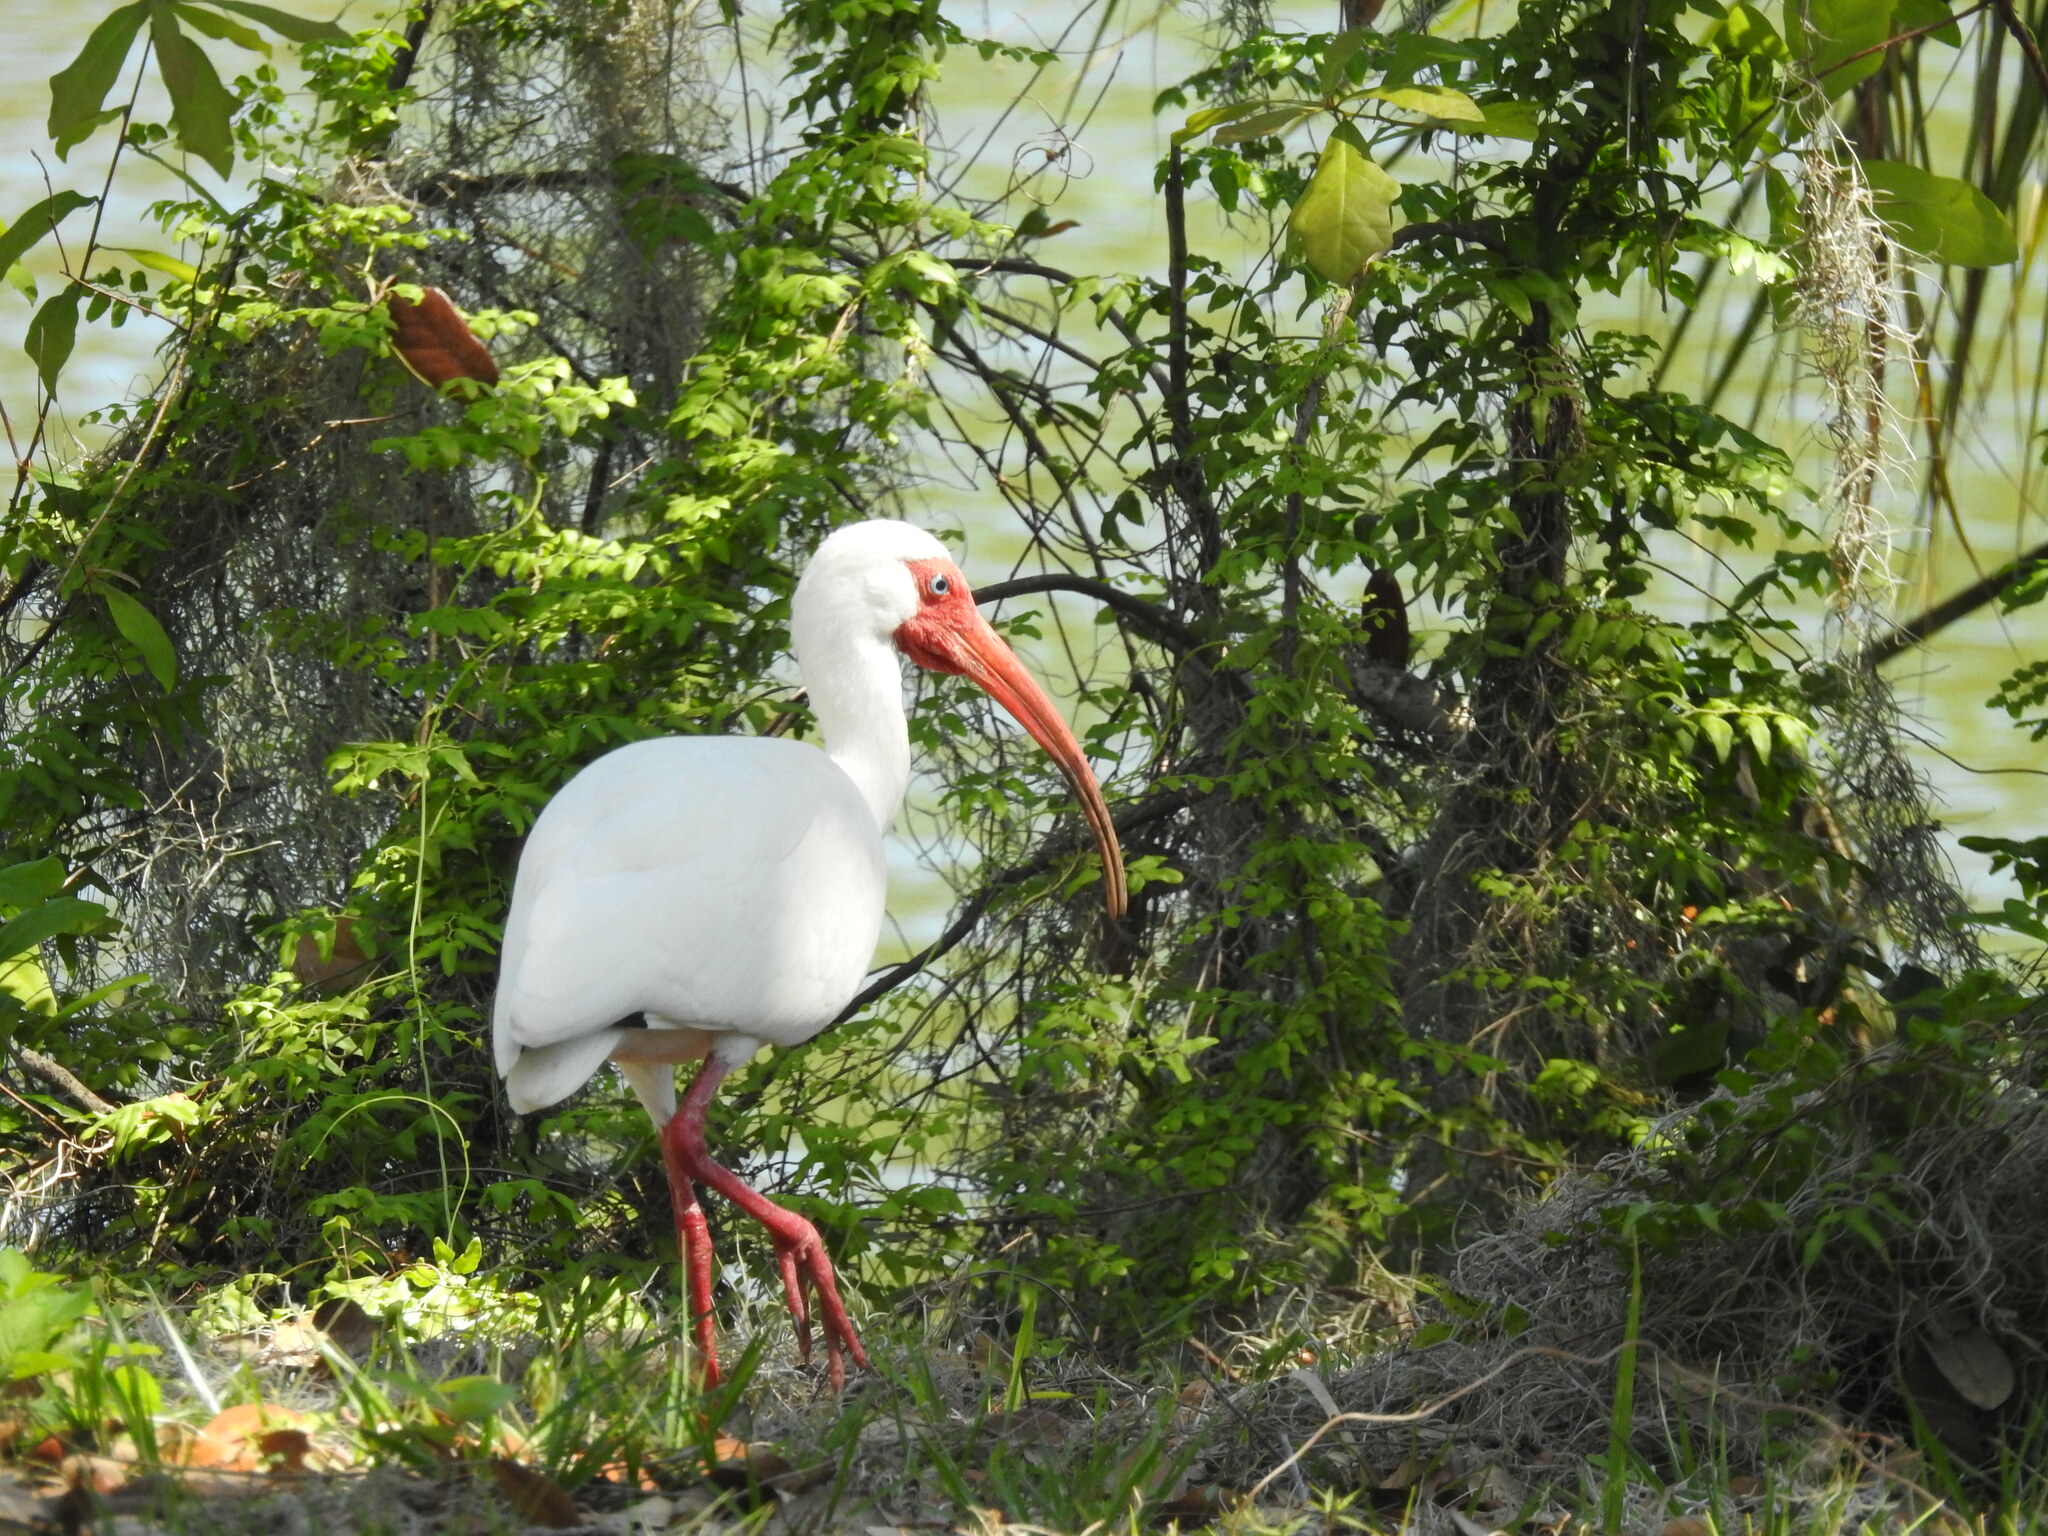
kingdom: Animalia
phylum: Chordata
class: Aves
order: Pelecaniformes
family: Threskiornithidae
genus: Eudocimus
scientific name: Eudocimus albus
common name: White ibis
